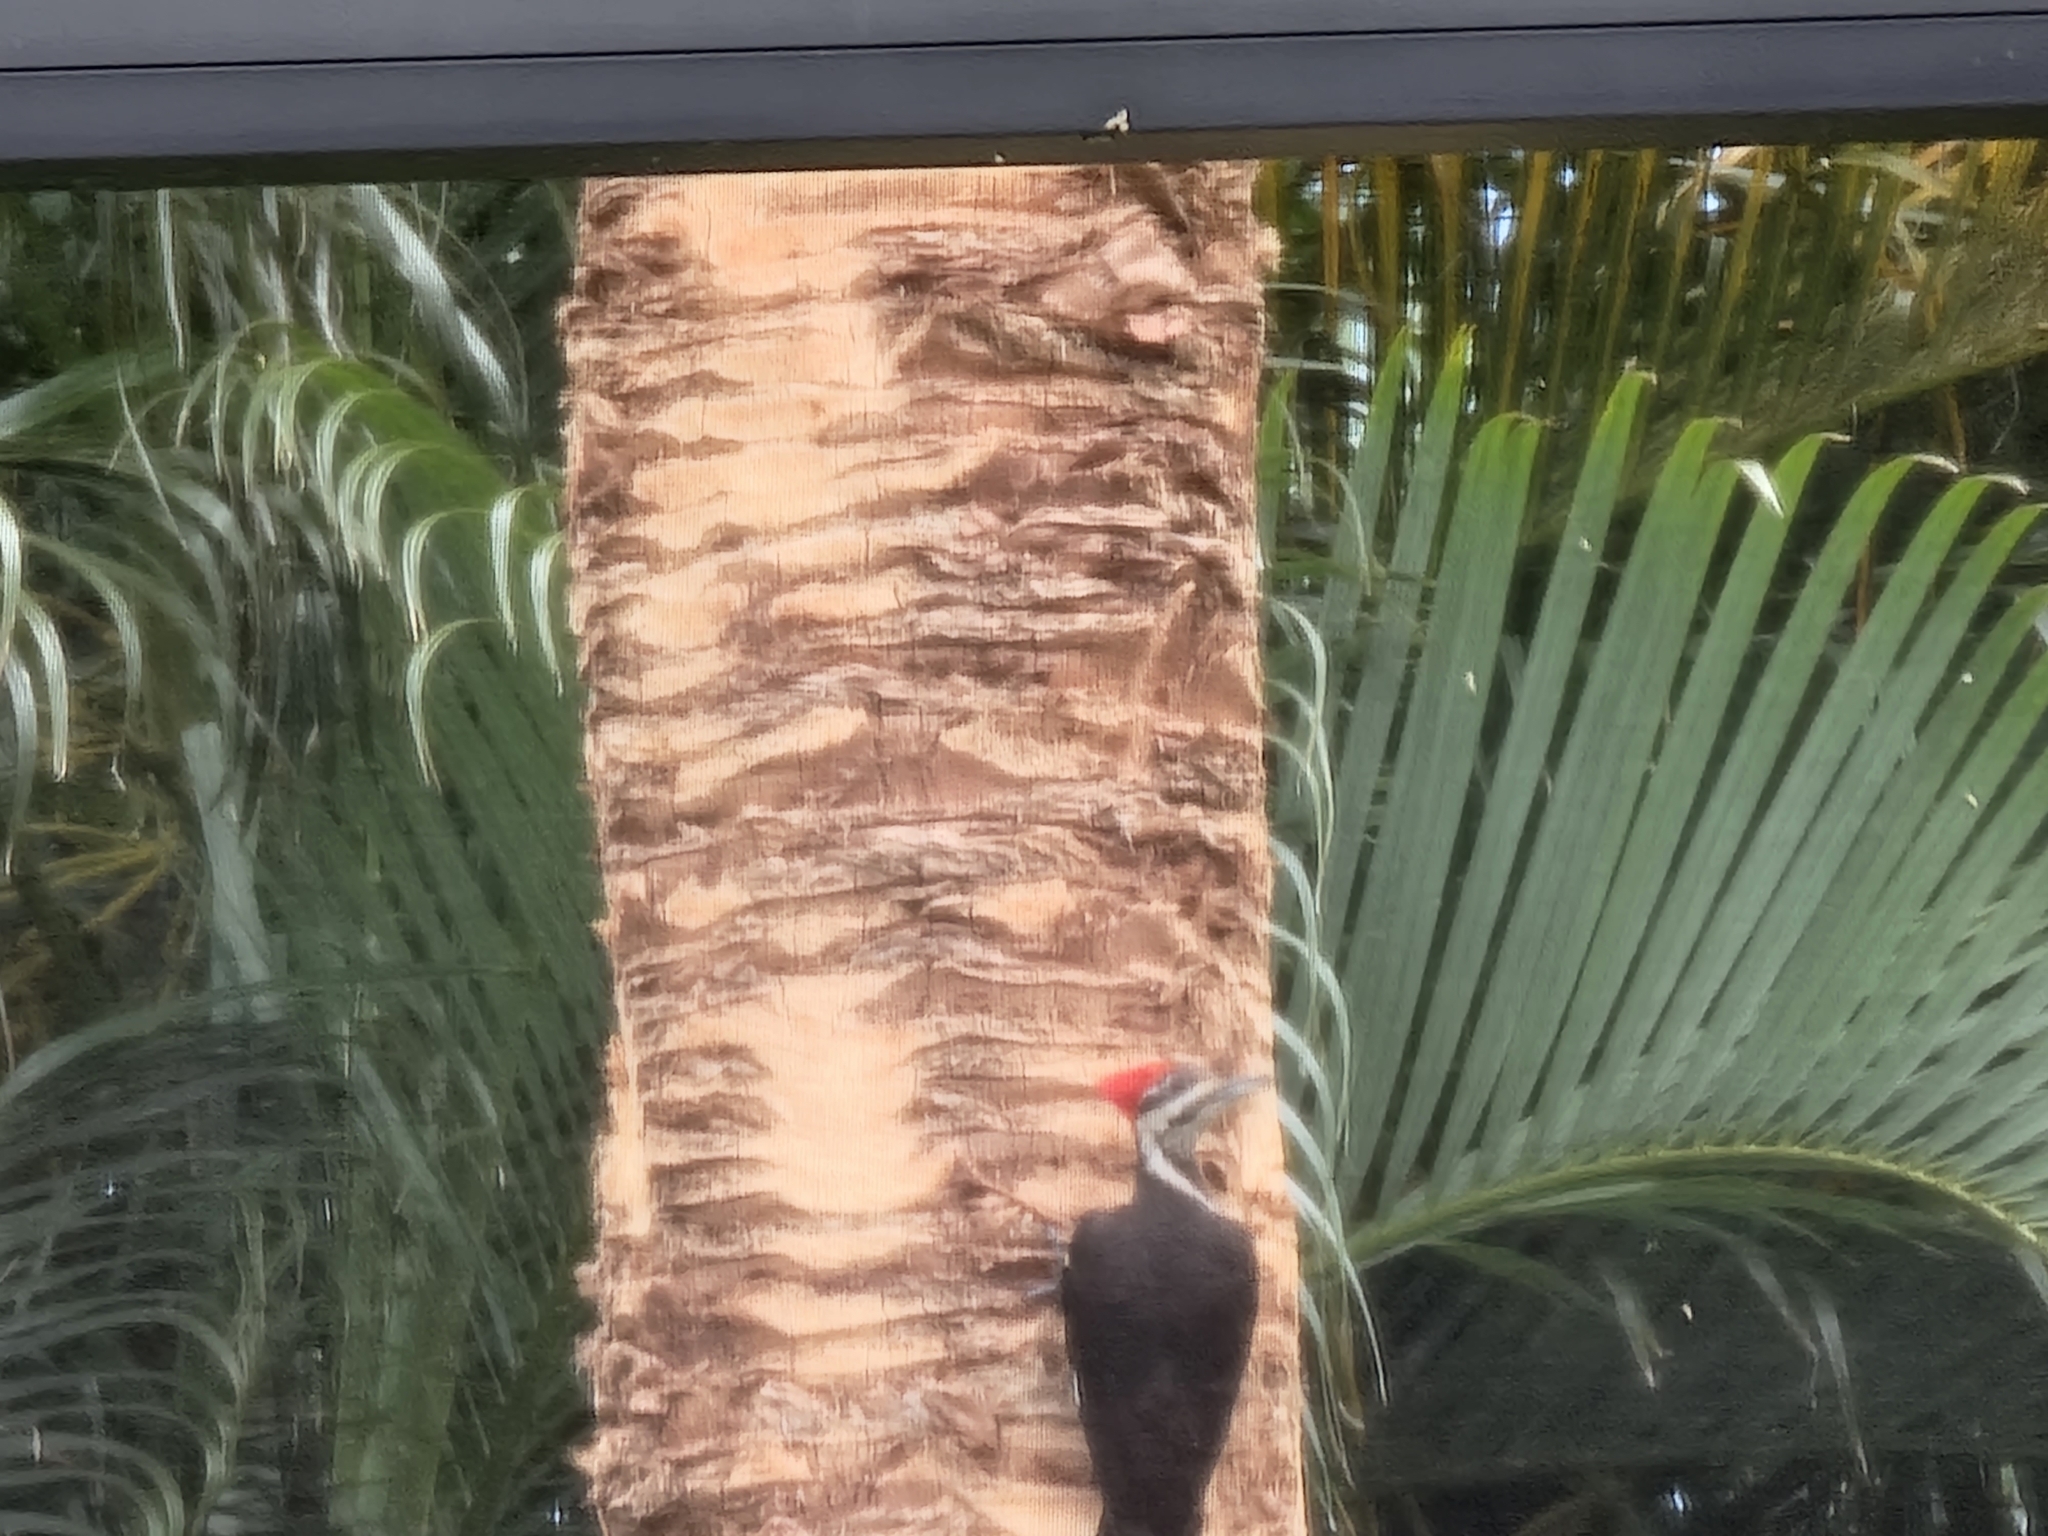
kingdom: Animalia
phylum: Chordata
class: Aves
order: Piciformes
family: Picidae
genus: Dryocopus
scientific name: Dryocopus pileatus
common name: Pileated woodpecker
